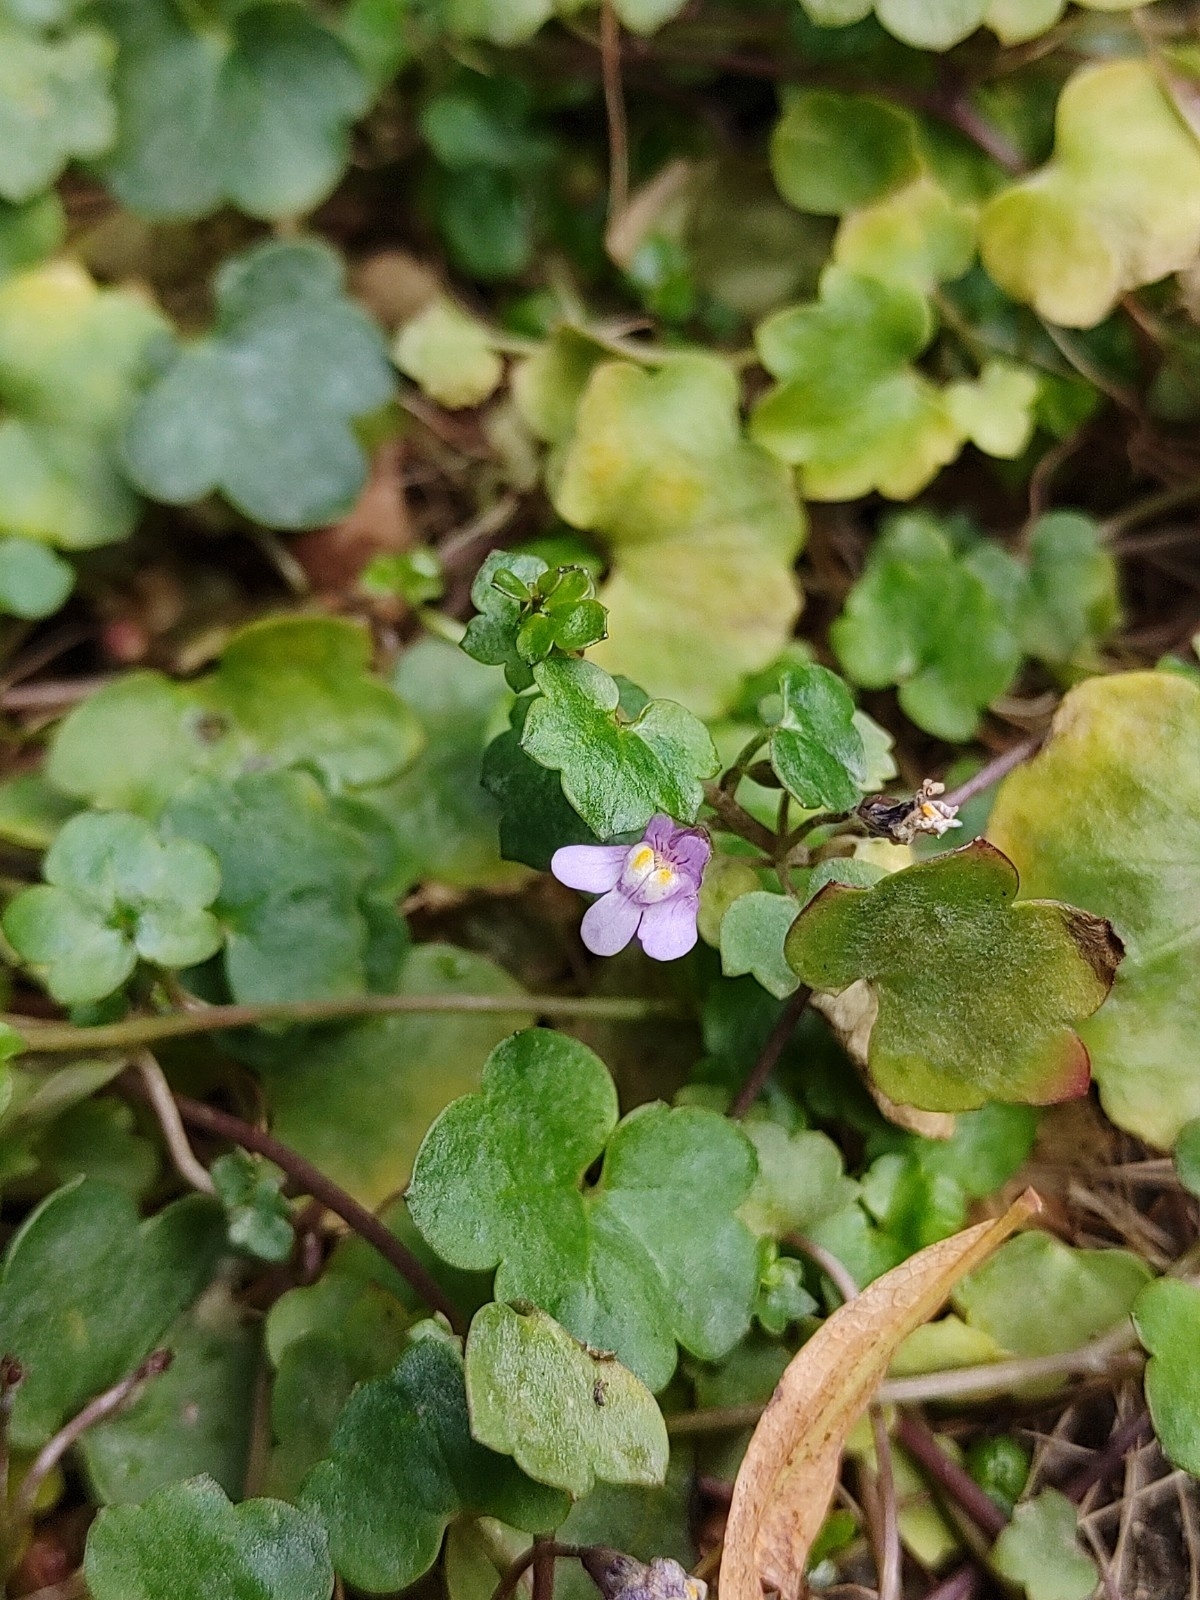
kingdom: Plantae
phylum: Tracheophyta
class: Magnoliopsida
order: Lamiales
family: Plantaginaceae
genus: Cymbalaria
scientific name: Cymbalaria muralis
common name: Ivy-leaved toadflax
